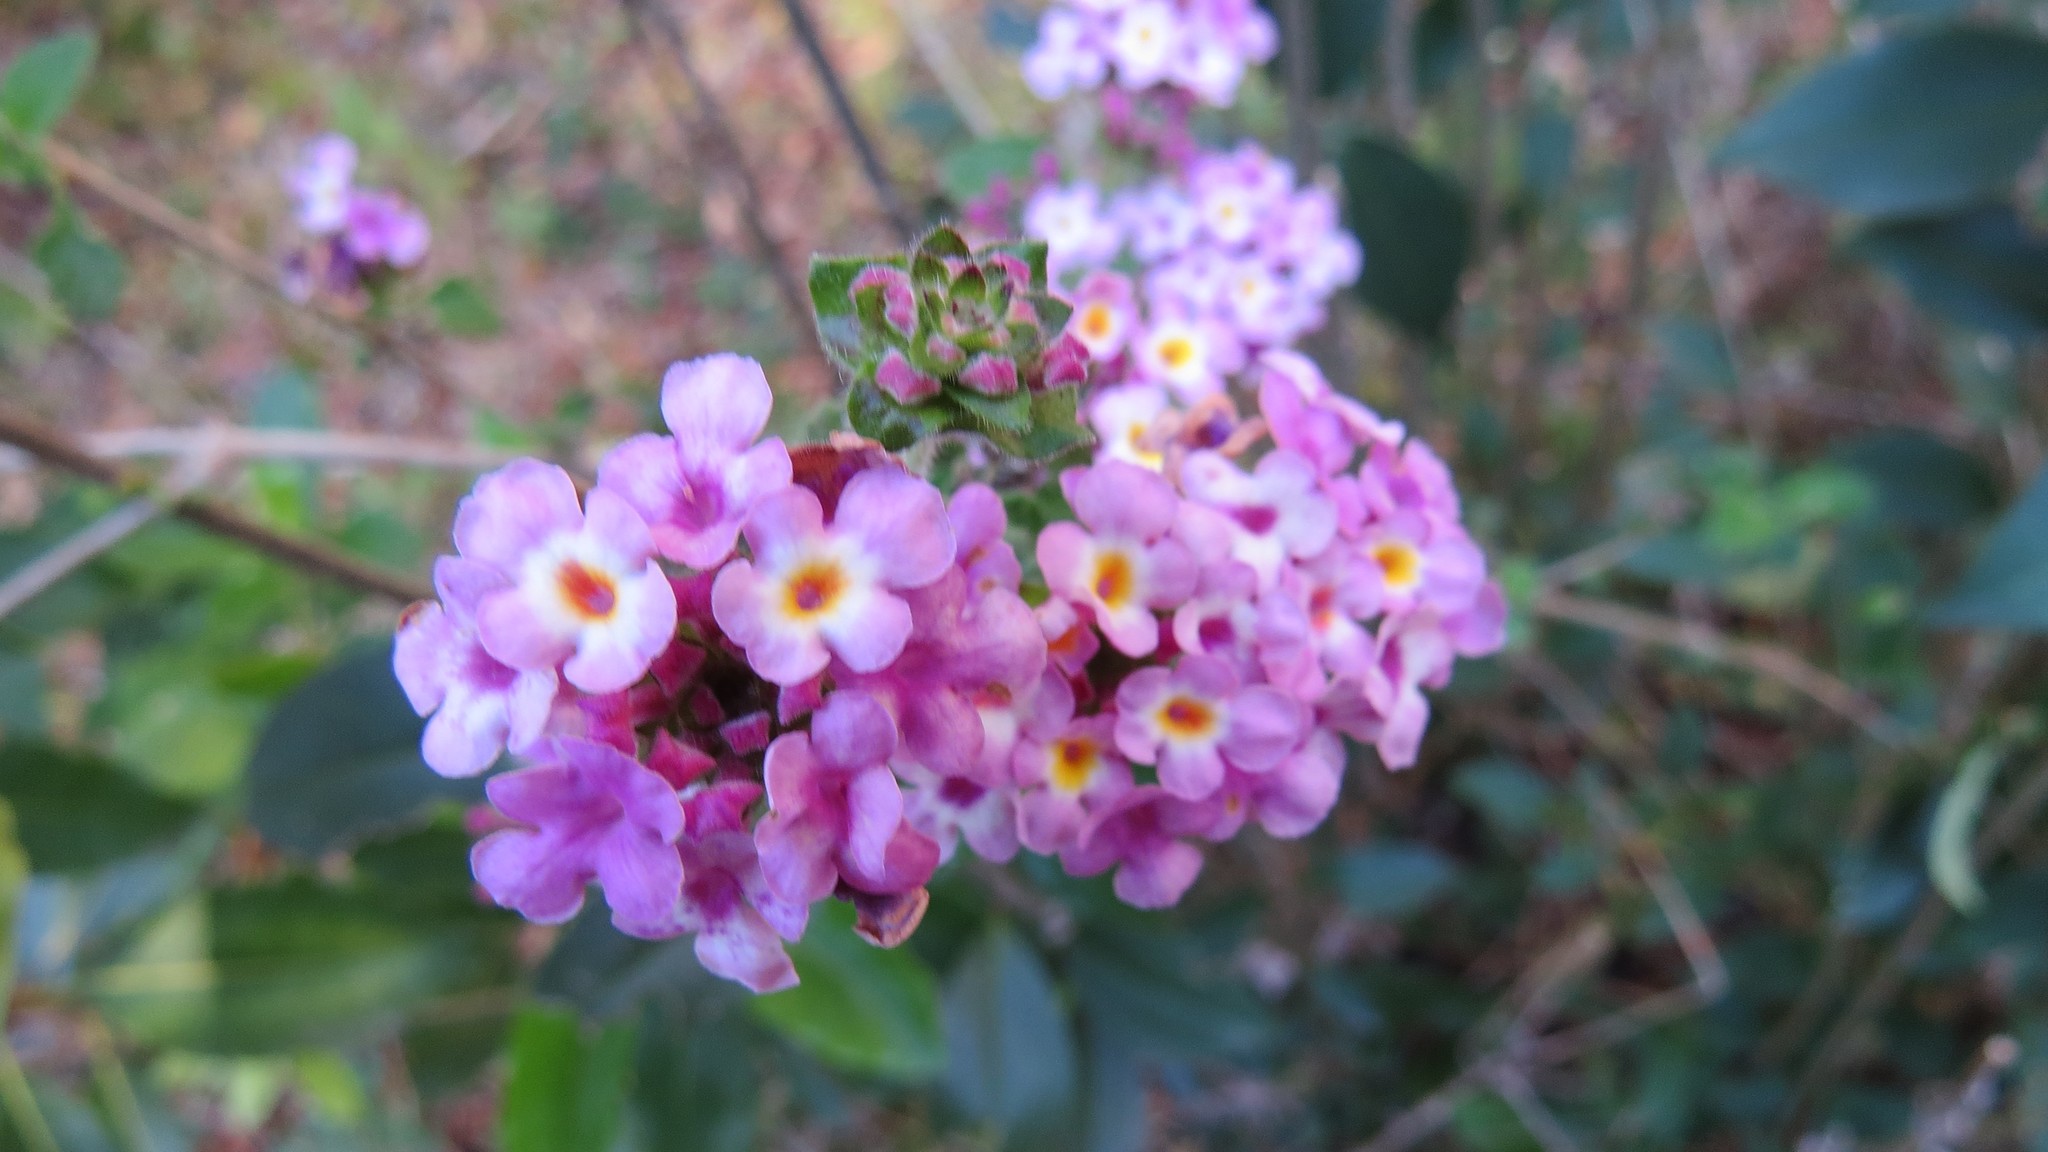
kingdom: Plantae
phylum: Tracheophyta
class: Magnoliopsida
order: Lamiales
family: Verbenaceae
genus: Lantana
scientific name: Lantana montevidensis
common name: Trailing shrubverbena
